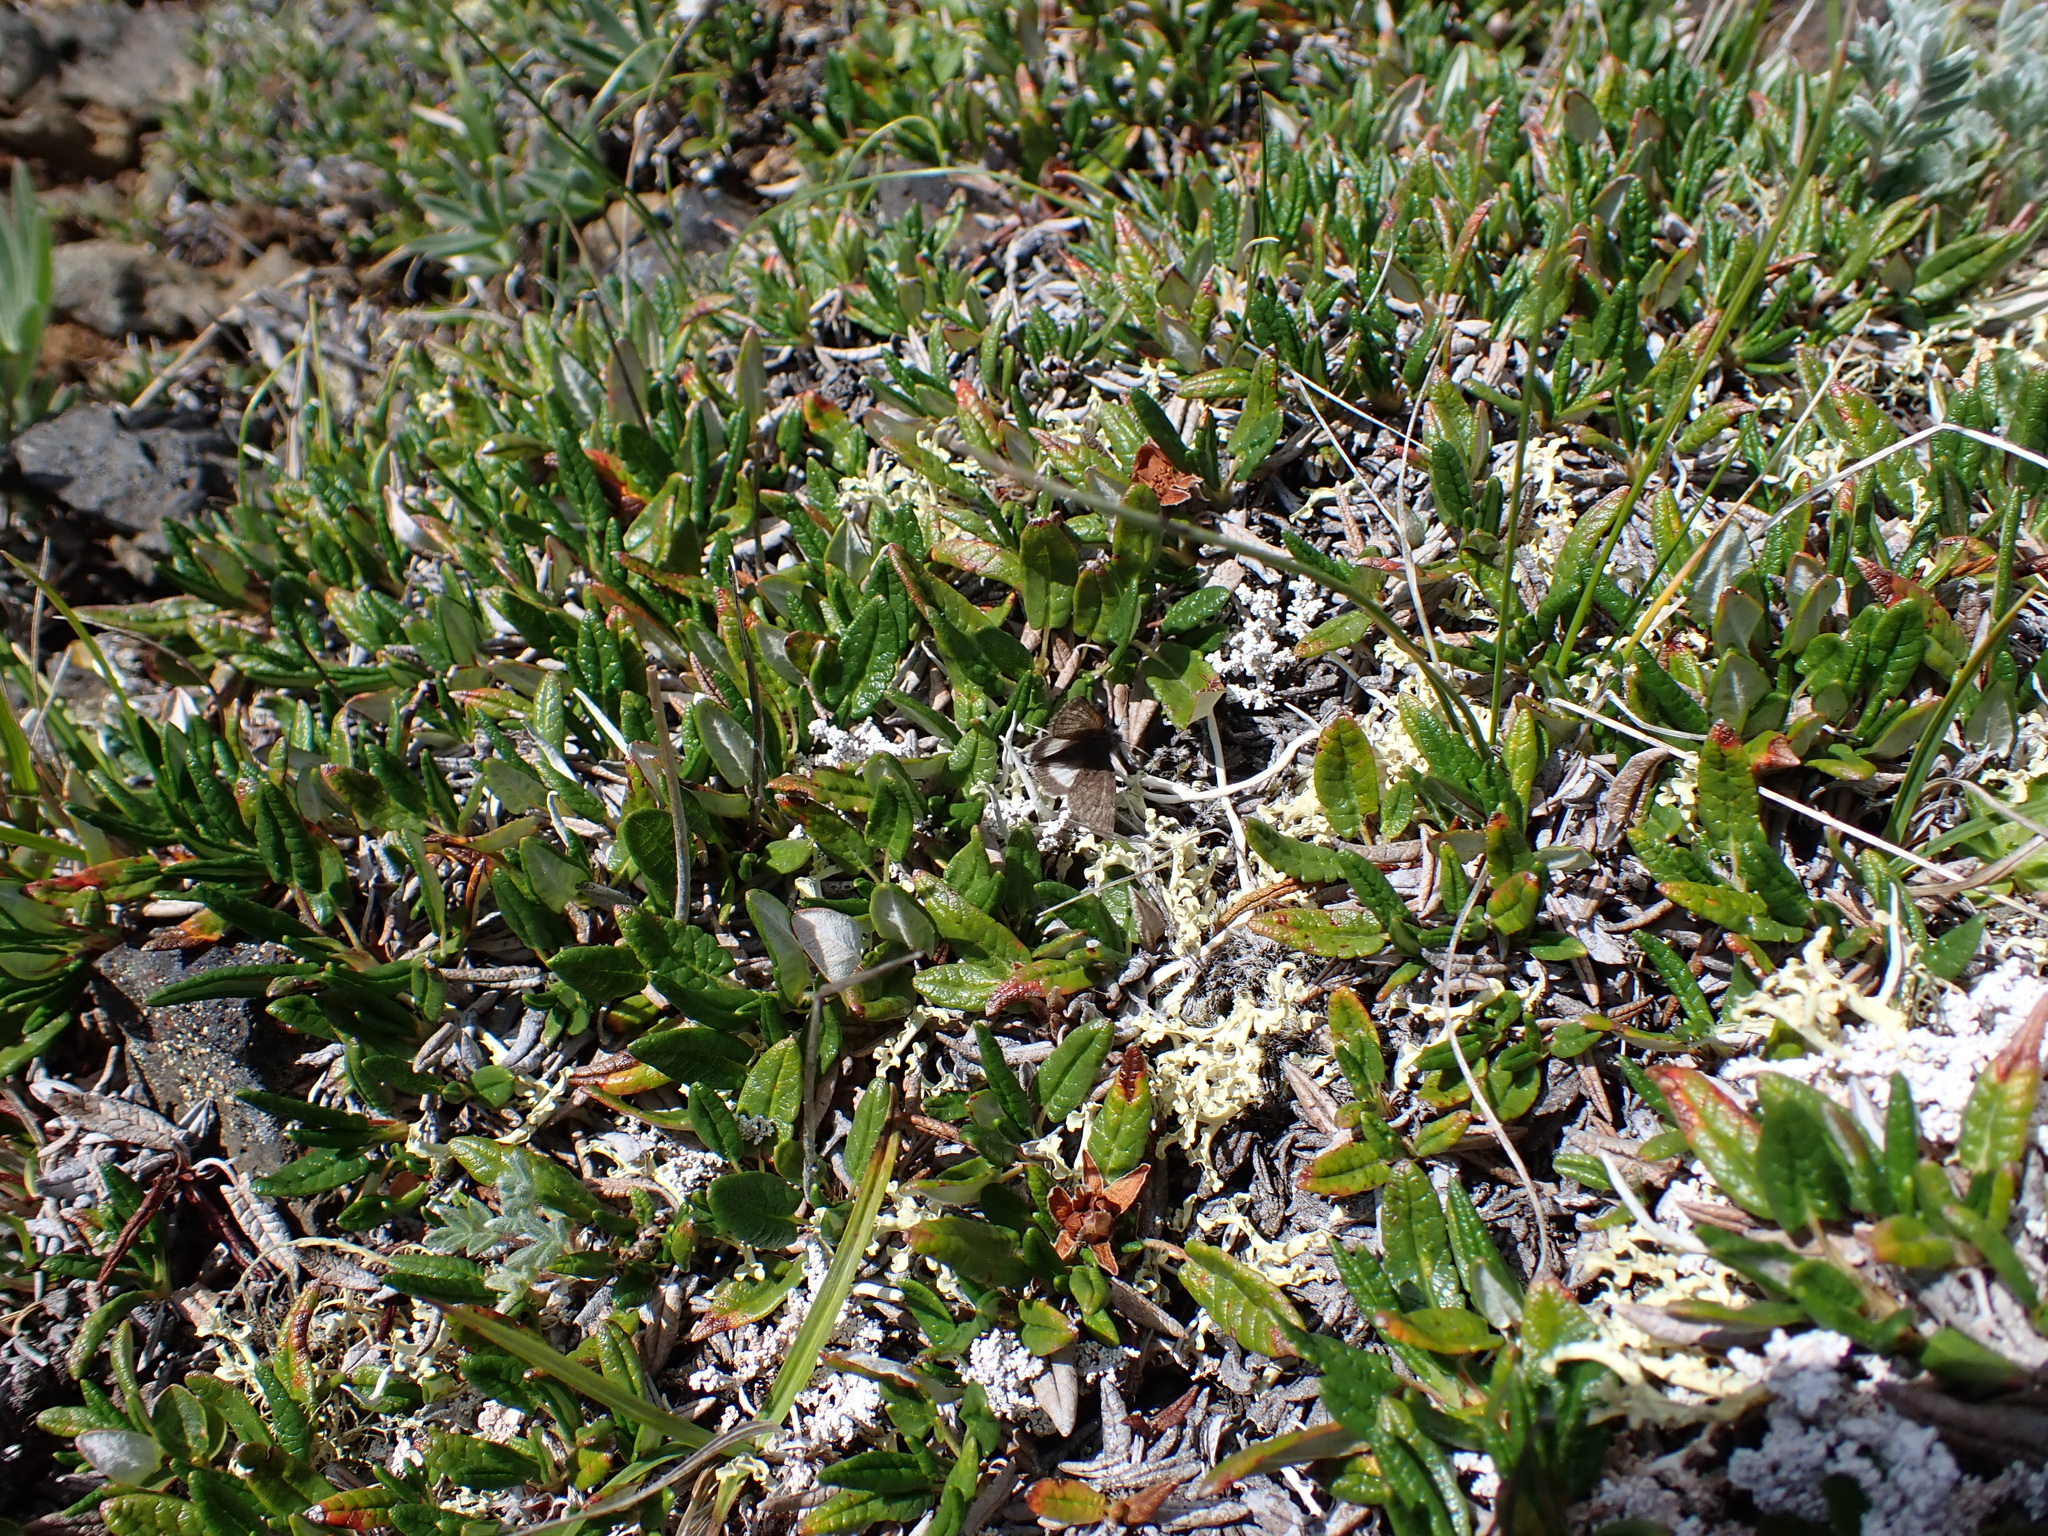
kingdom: Animalia
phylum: Arthropoda
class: Insecta
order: Lepidoptera
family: Noctuidae
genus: Sympistis
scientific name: Sympistis nigrita
